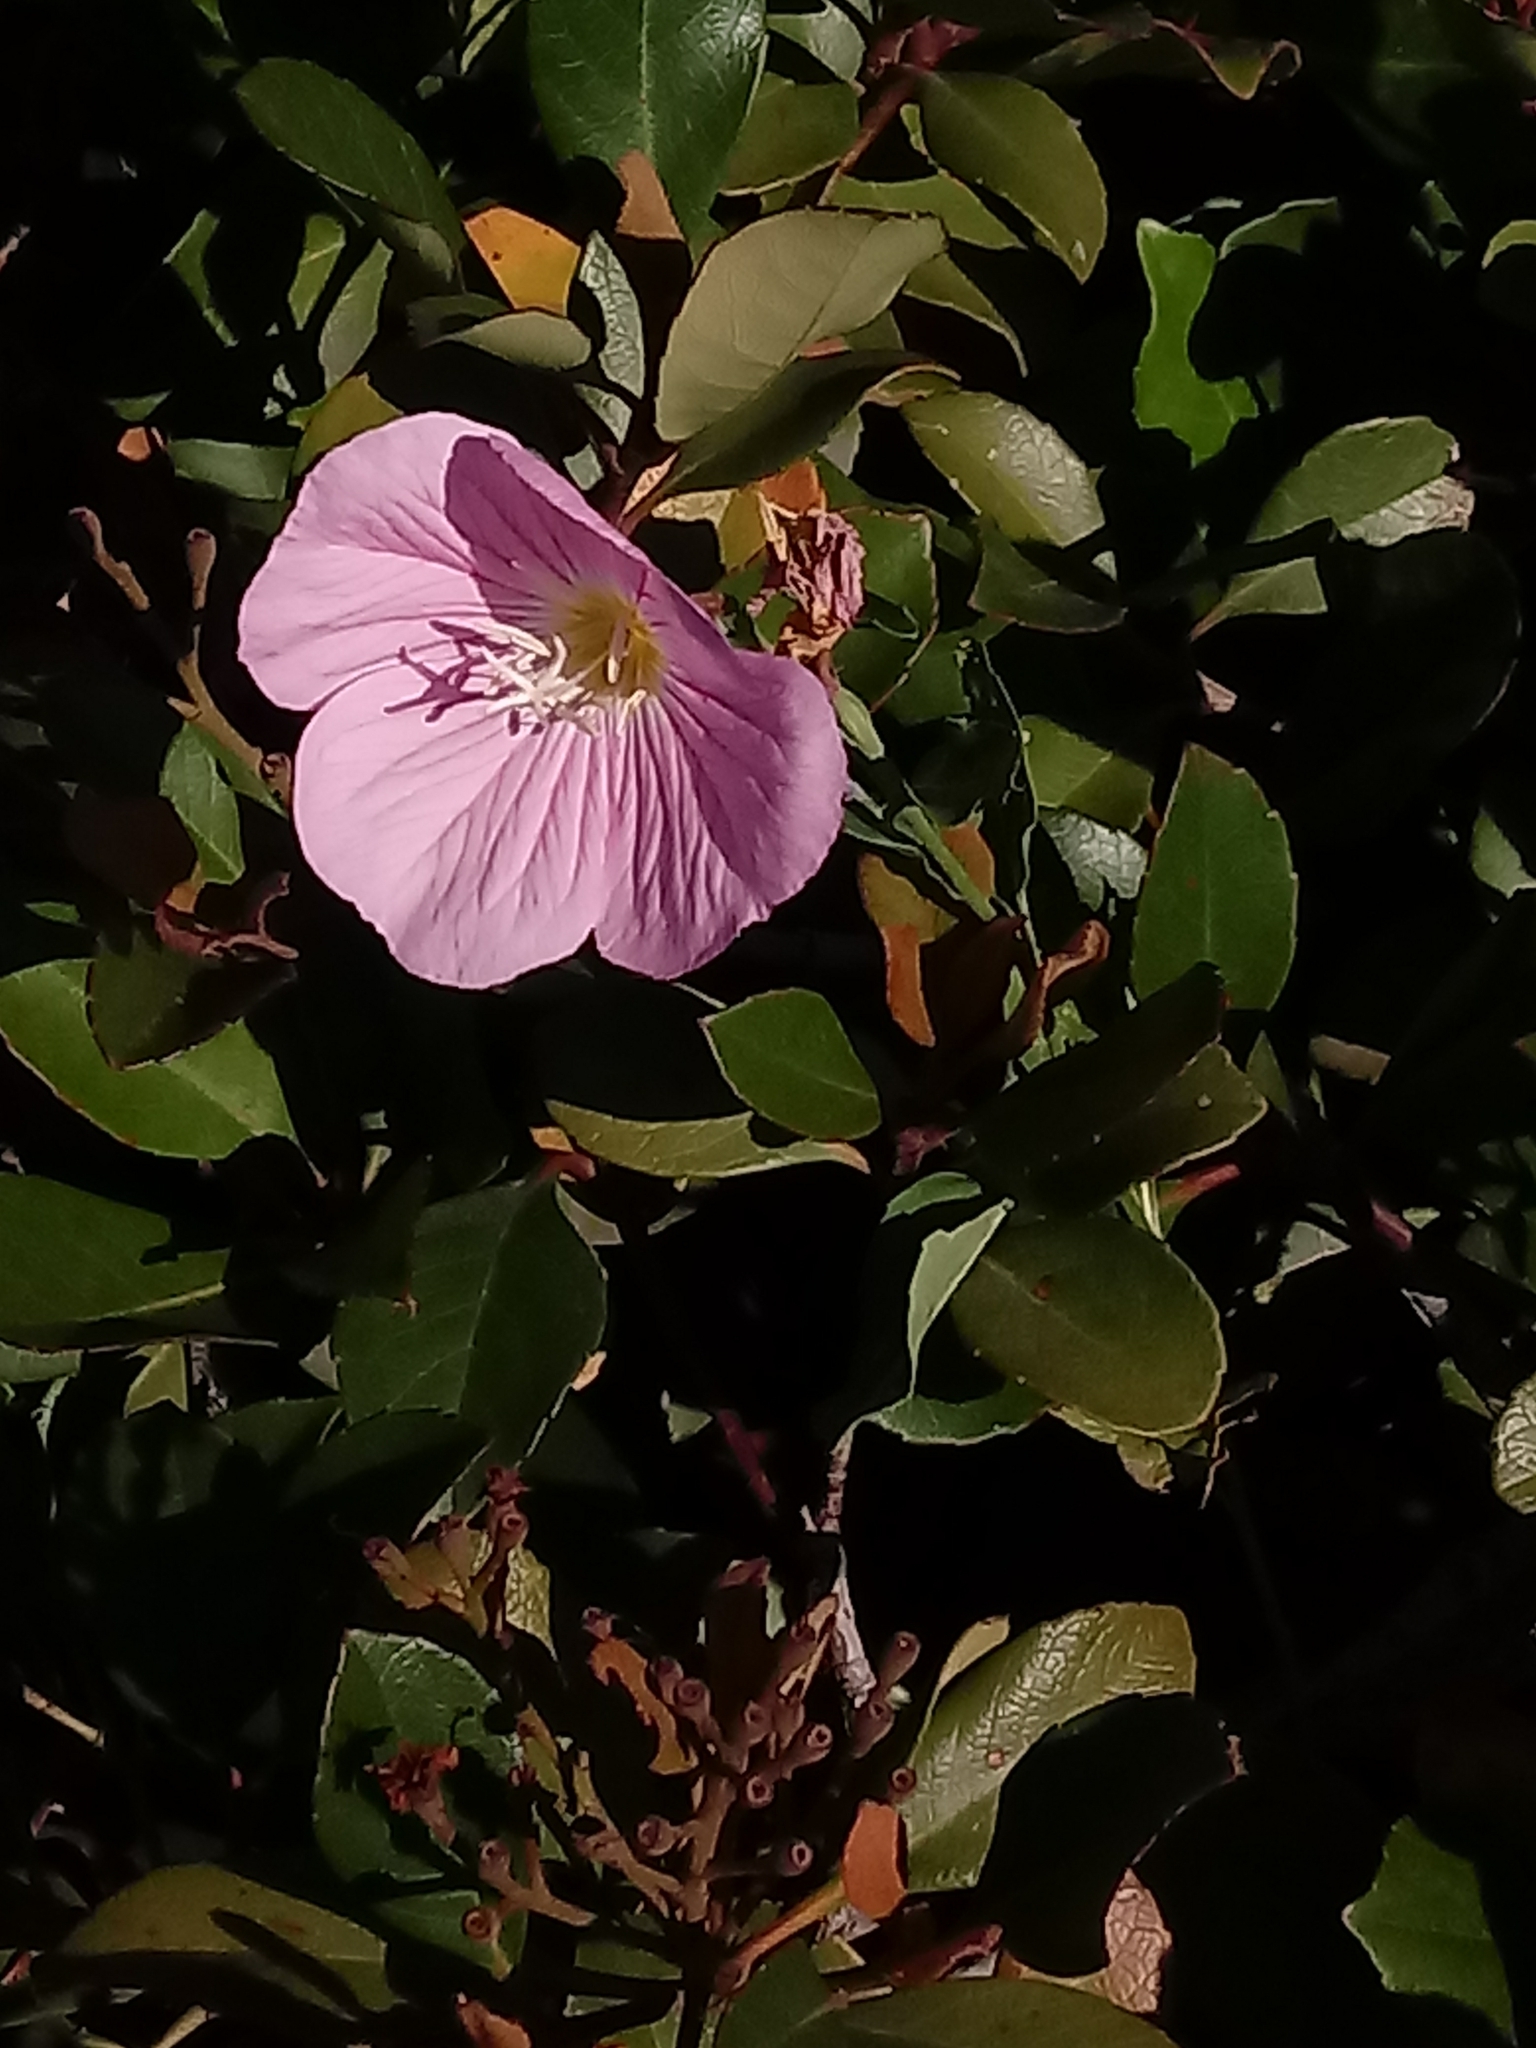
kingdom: Plantae
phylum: Tracheophyta
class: Magnoliopsida
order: Myrtales
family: Onagraceae
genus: Oenothera
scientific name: Oenothera speciosa
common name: White evening-primrose
